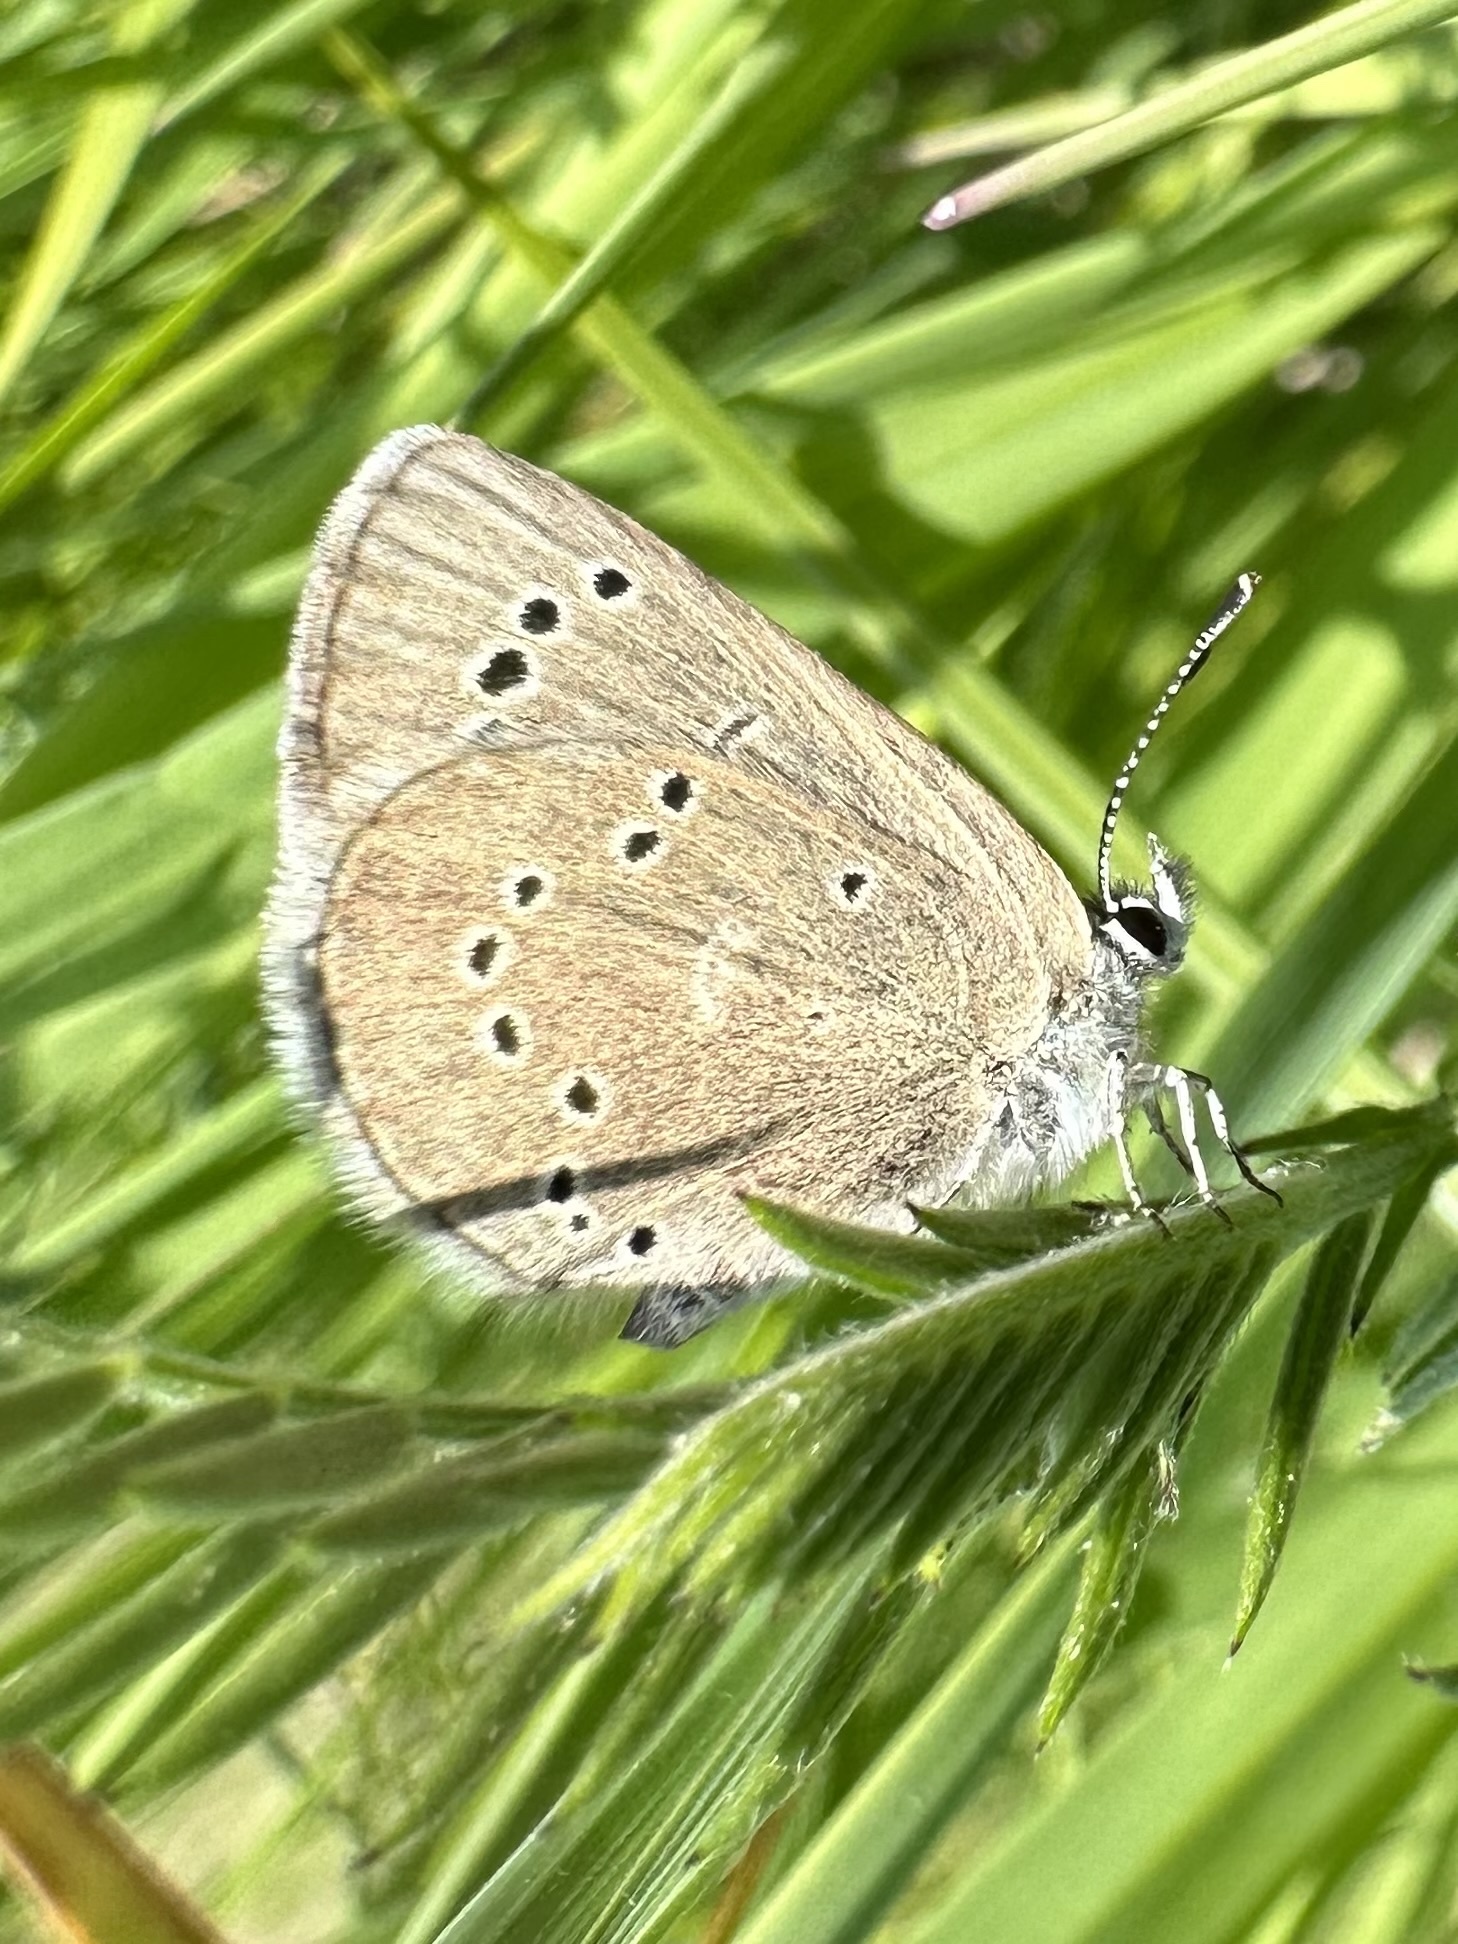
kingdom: Animalia
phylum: Arthropoda
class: Insecta
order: Lepidoptera
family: Lycaenidae
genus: Glaucopsyche
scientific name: Glaucopsyche lygdamus
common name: Silvery blue
